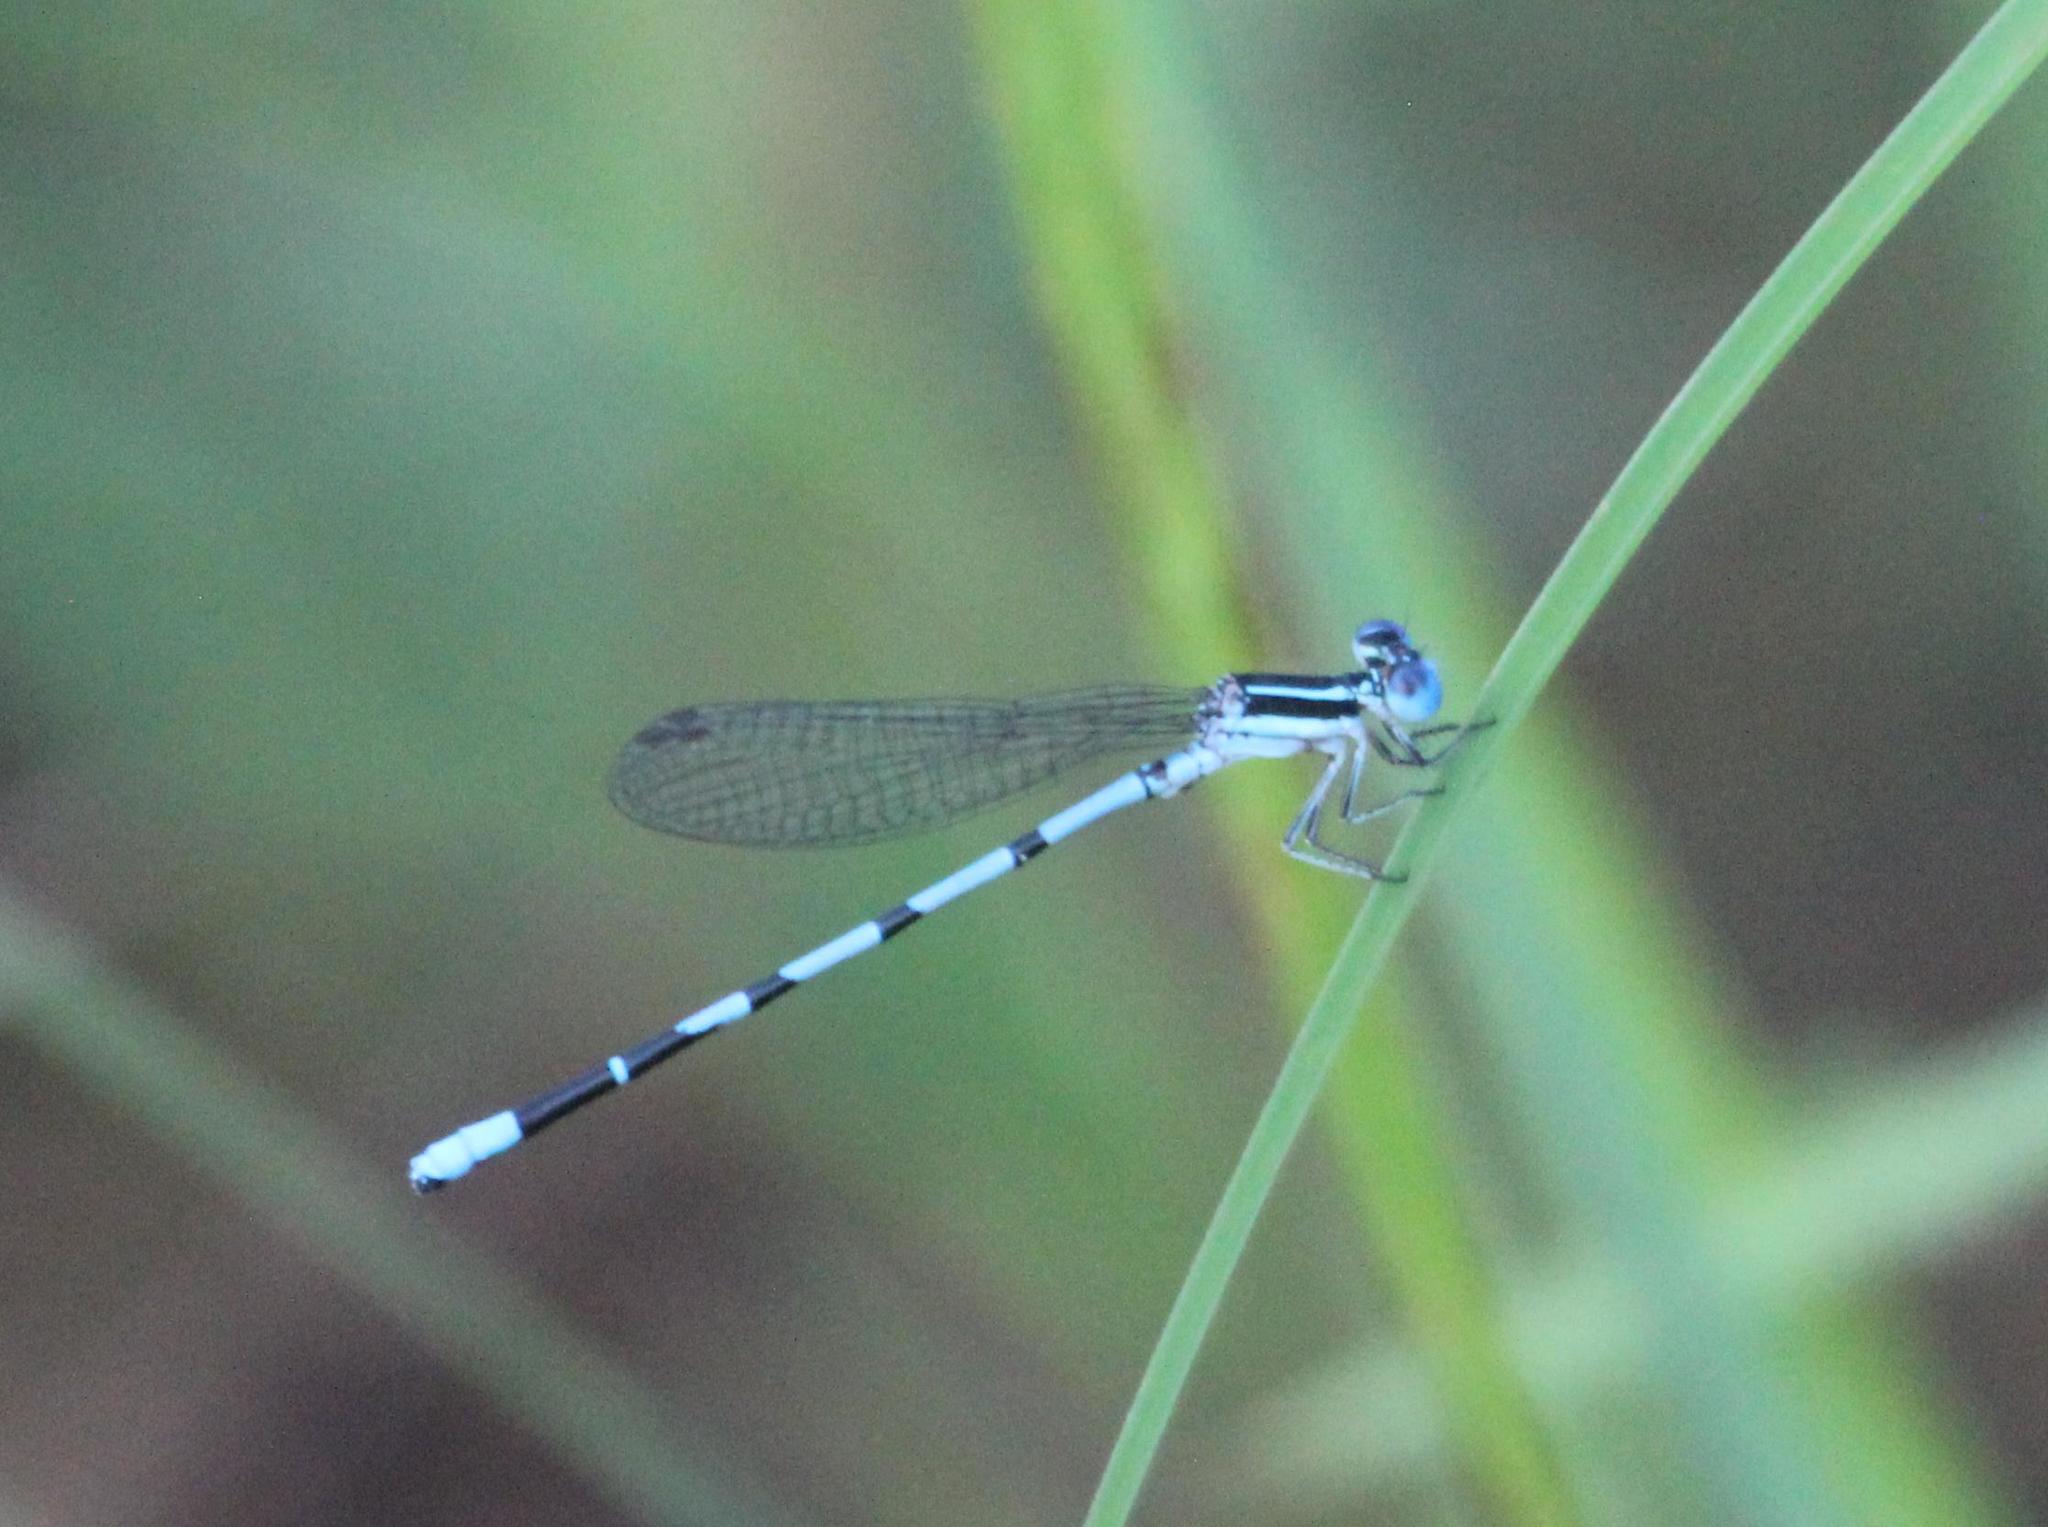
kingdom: Animalia
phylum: Arthropoda
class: Insecta
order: Odonata
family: Coenagrionidae
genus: Argia
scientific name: Argia bipunctulata
